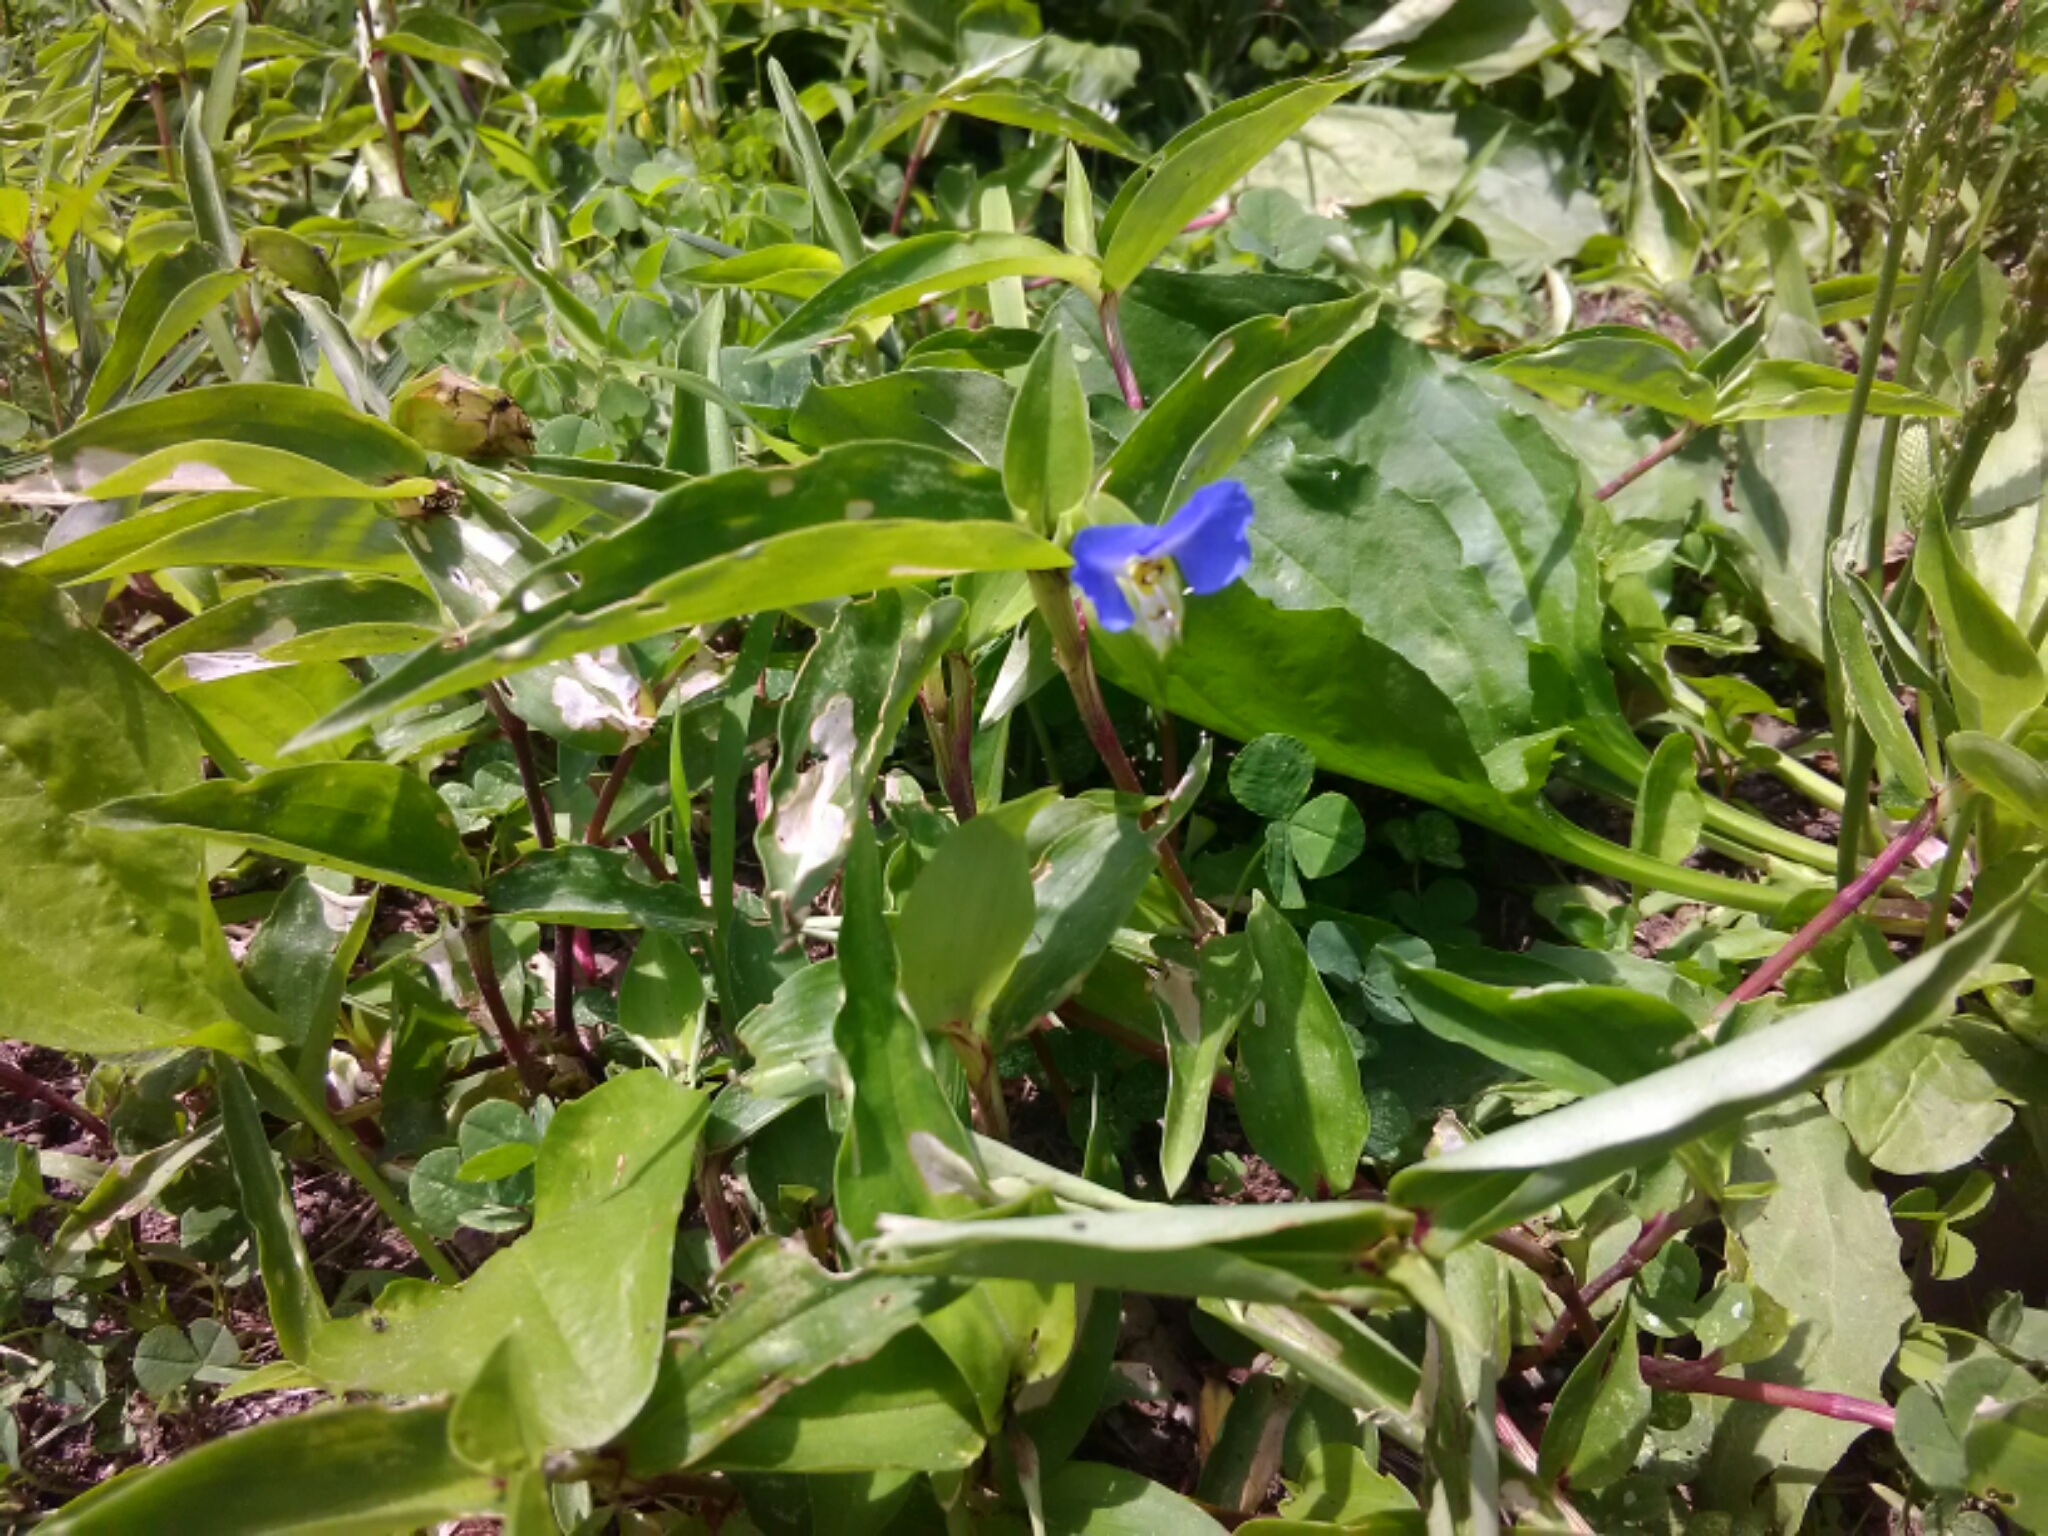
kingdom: Plantae
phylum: Tracheophyta
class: Liliopsida
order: Commelinales
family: Commelinaceae
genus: Commelina
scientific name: Commelina communis
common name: Asiatic dayflower
